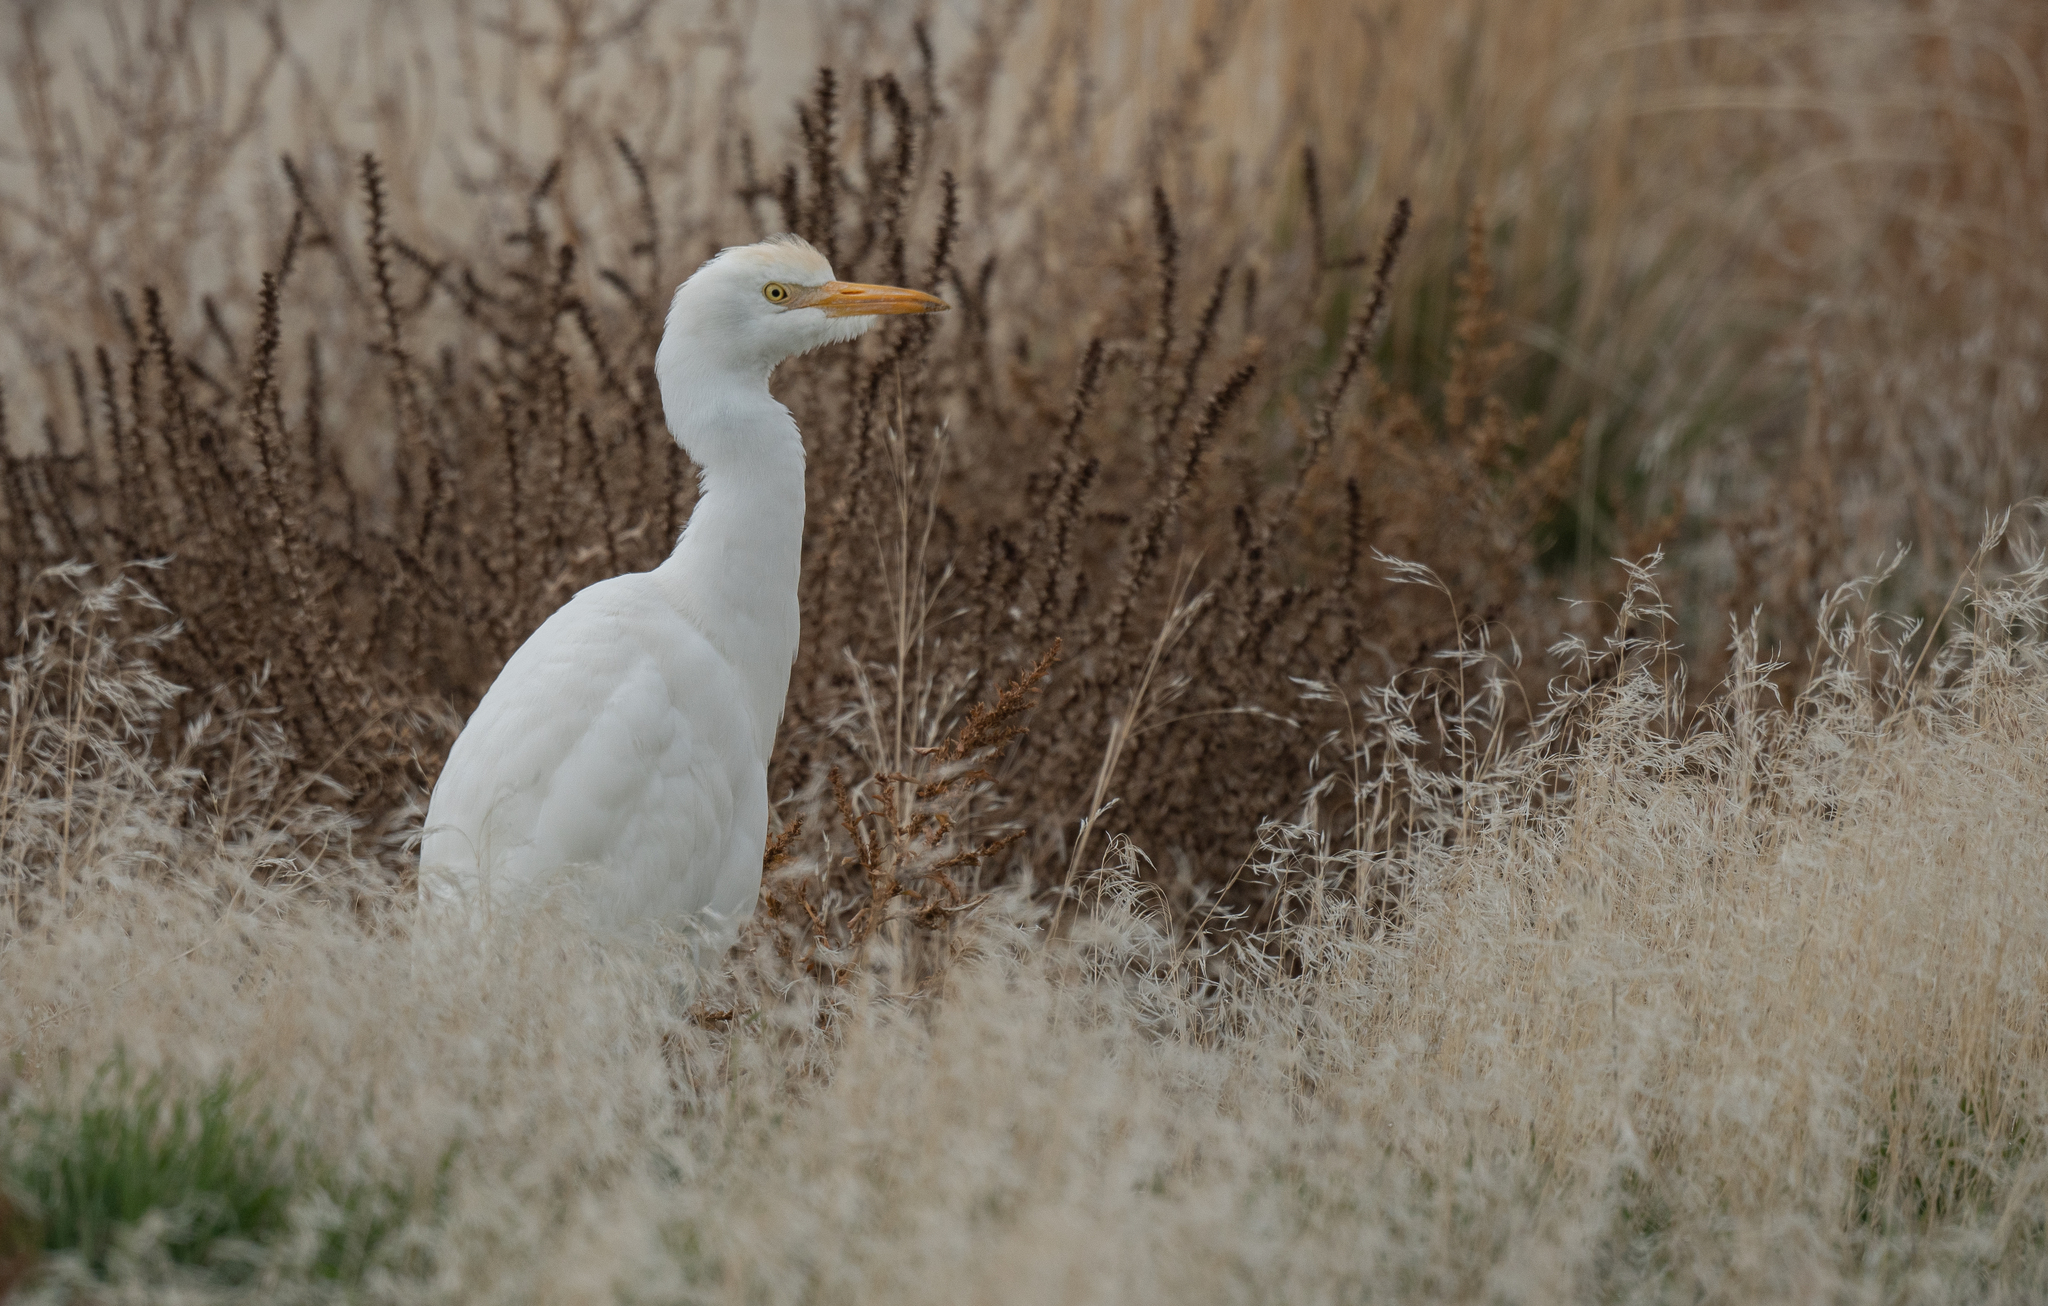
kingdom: Animalia
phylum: Chordata
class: Aves
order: Pelecaniformes
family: Ardeidae
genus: Bubulcus
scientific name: Bubulcus ibis
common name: Cattle egret
